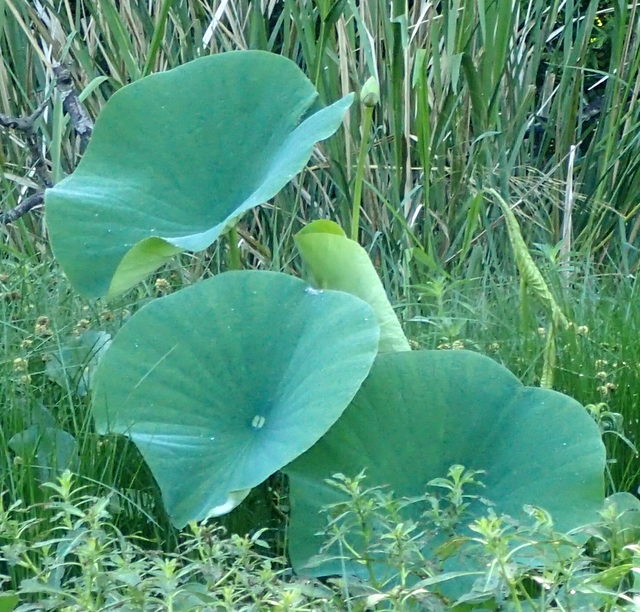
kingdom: Plantae
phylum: Tracheophyta
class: Magnoliopsida
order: Proteales
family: Nelumbonaceae
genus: Nelumbo
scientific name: Nelumbo lutea
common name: American lotus
